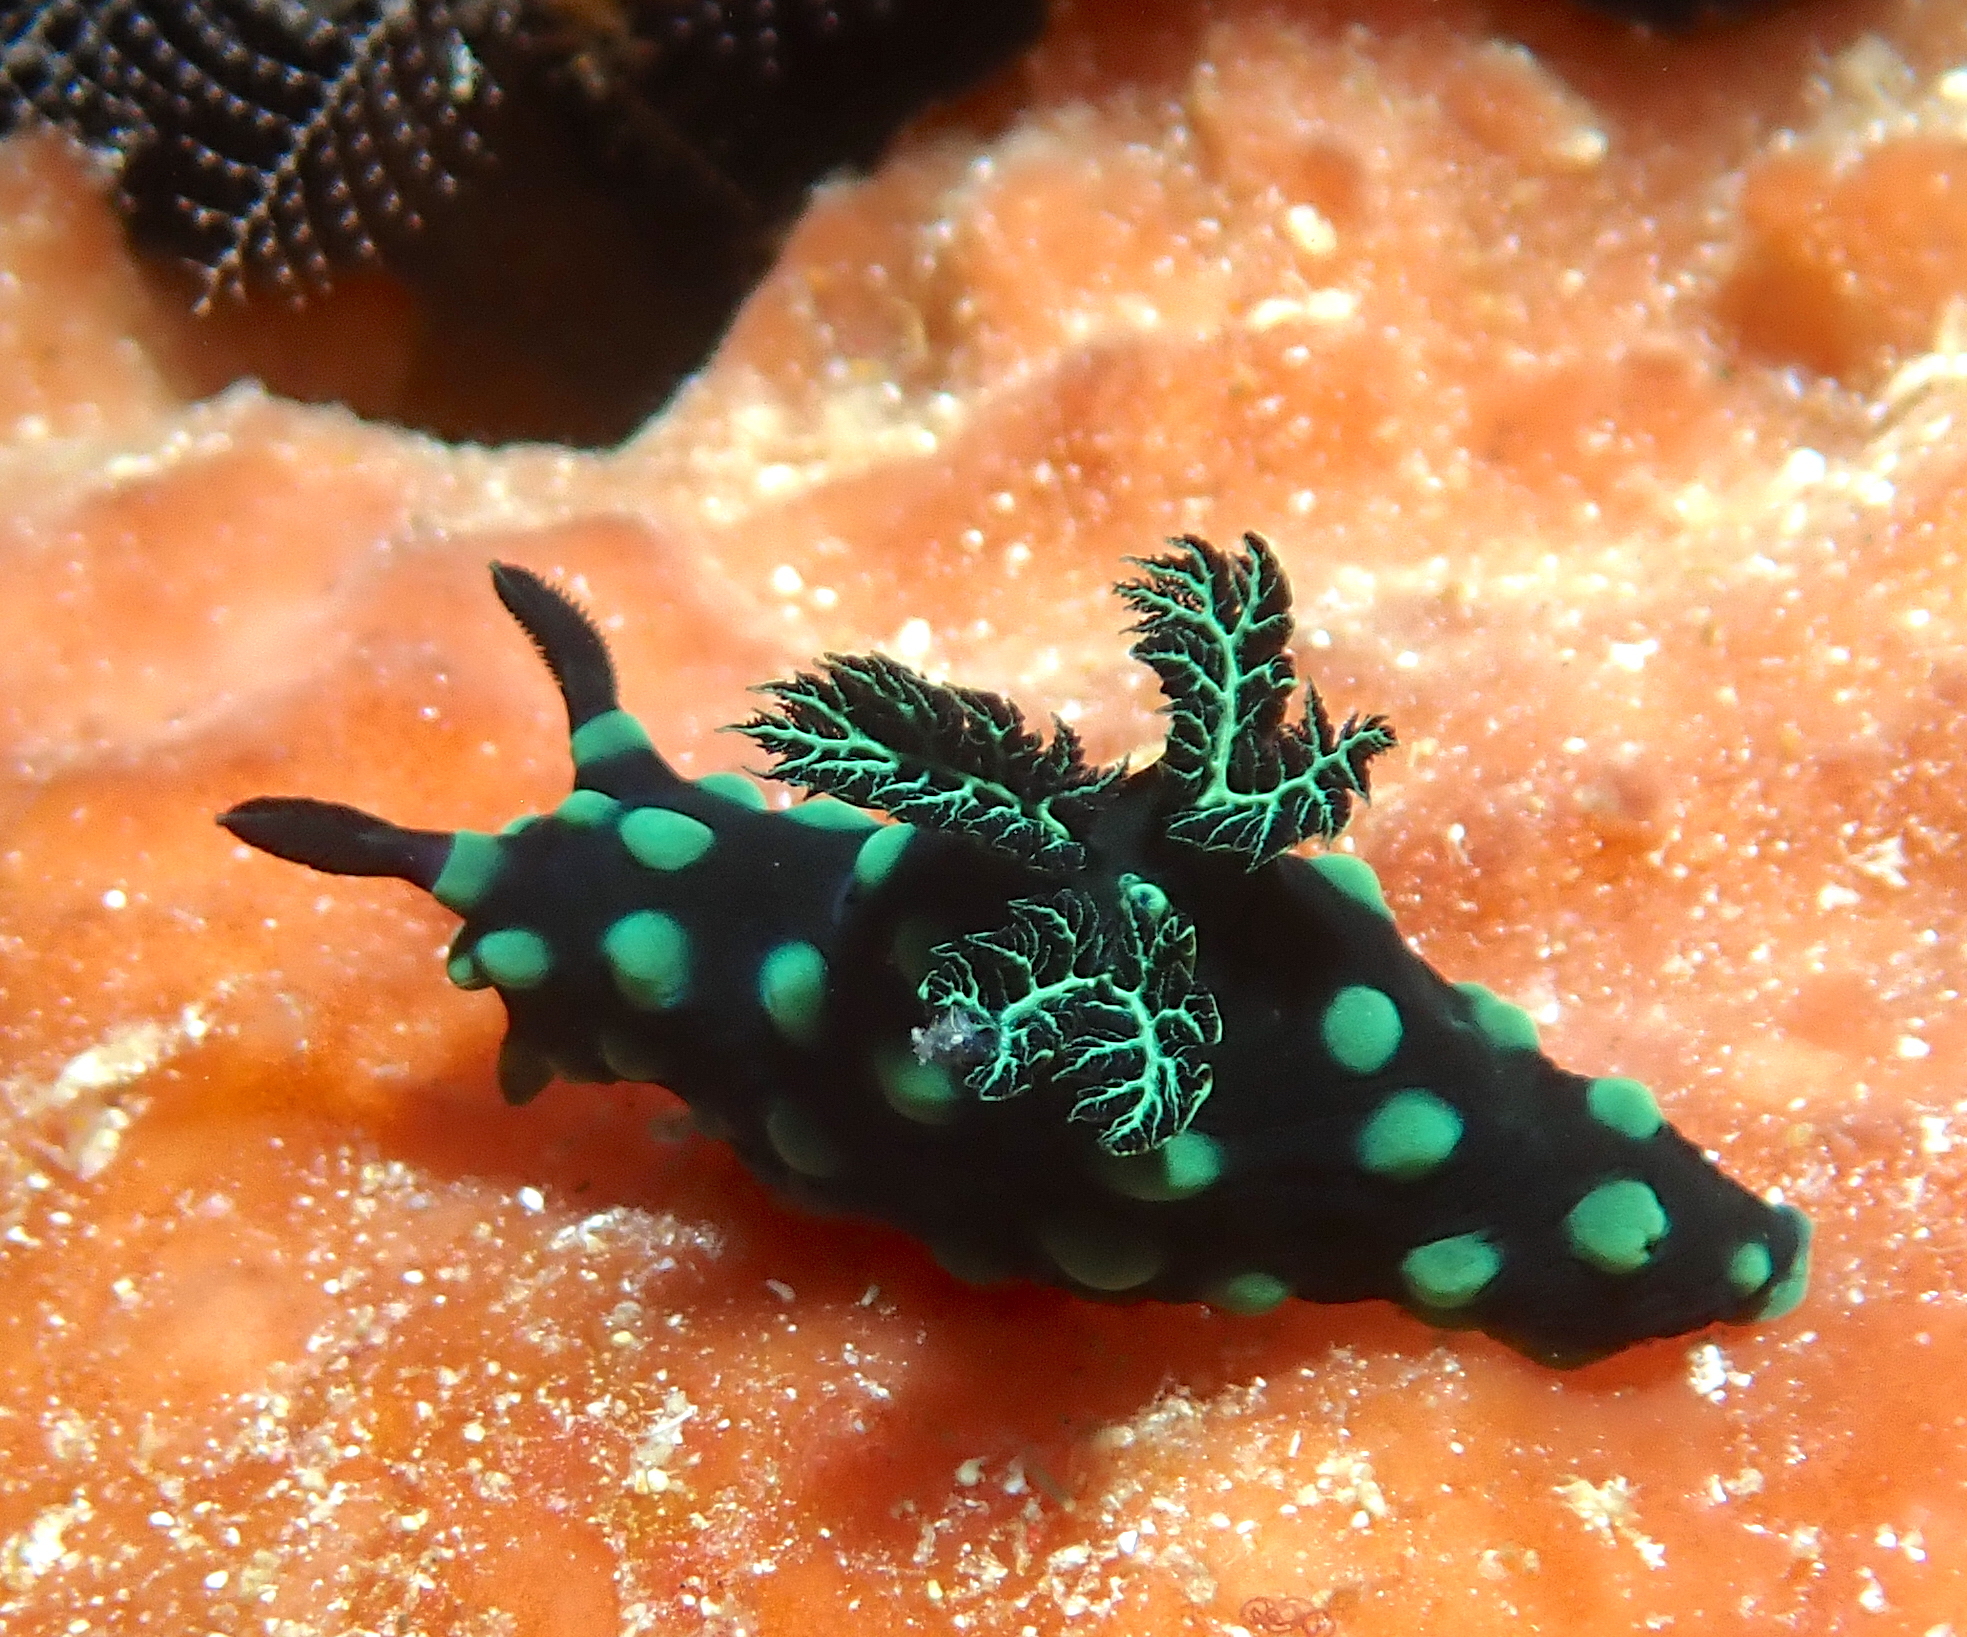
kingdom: Animalia
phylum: Mollusca
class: Gastropoda
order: Nudibranchia
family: Polyceridae
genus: Nembrotha
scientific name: Nembrotha cristata
